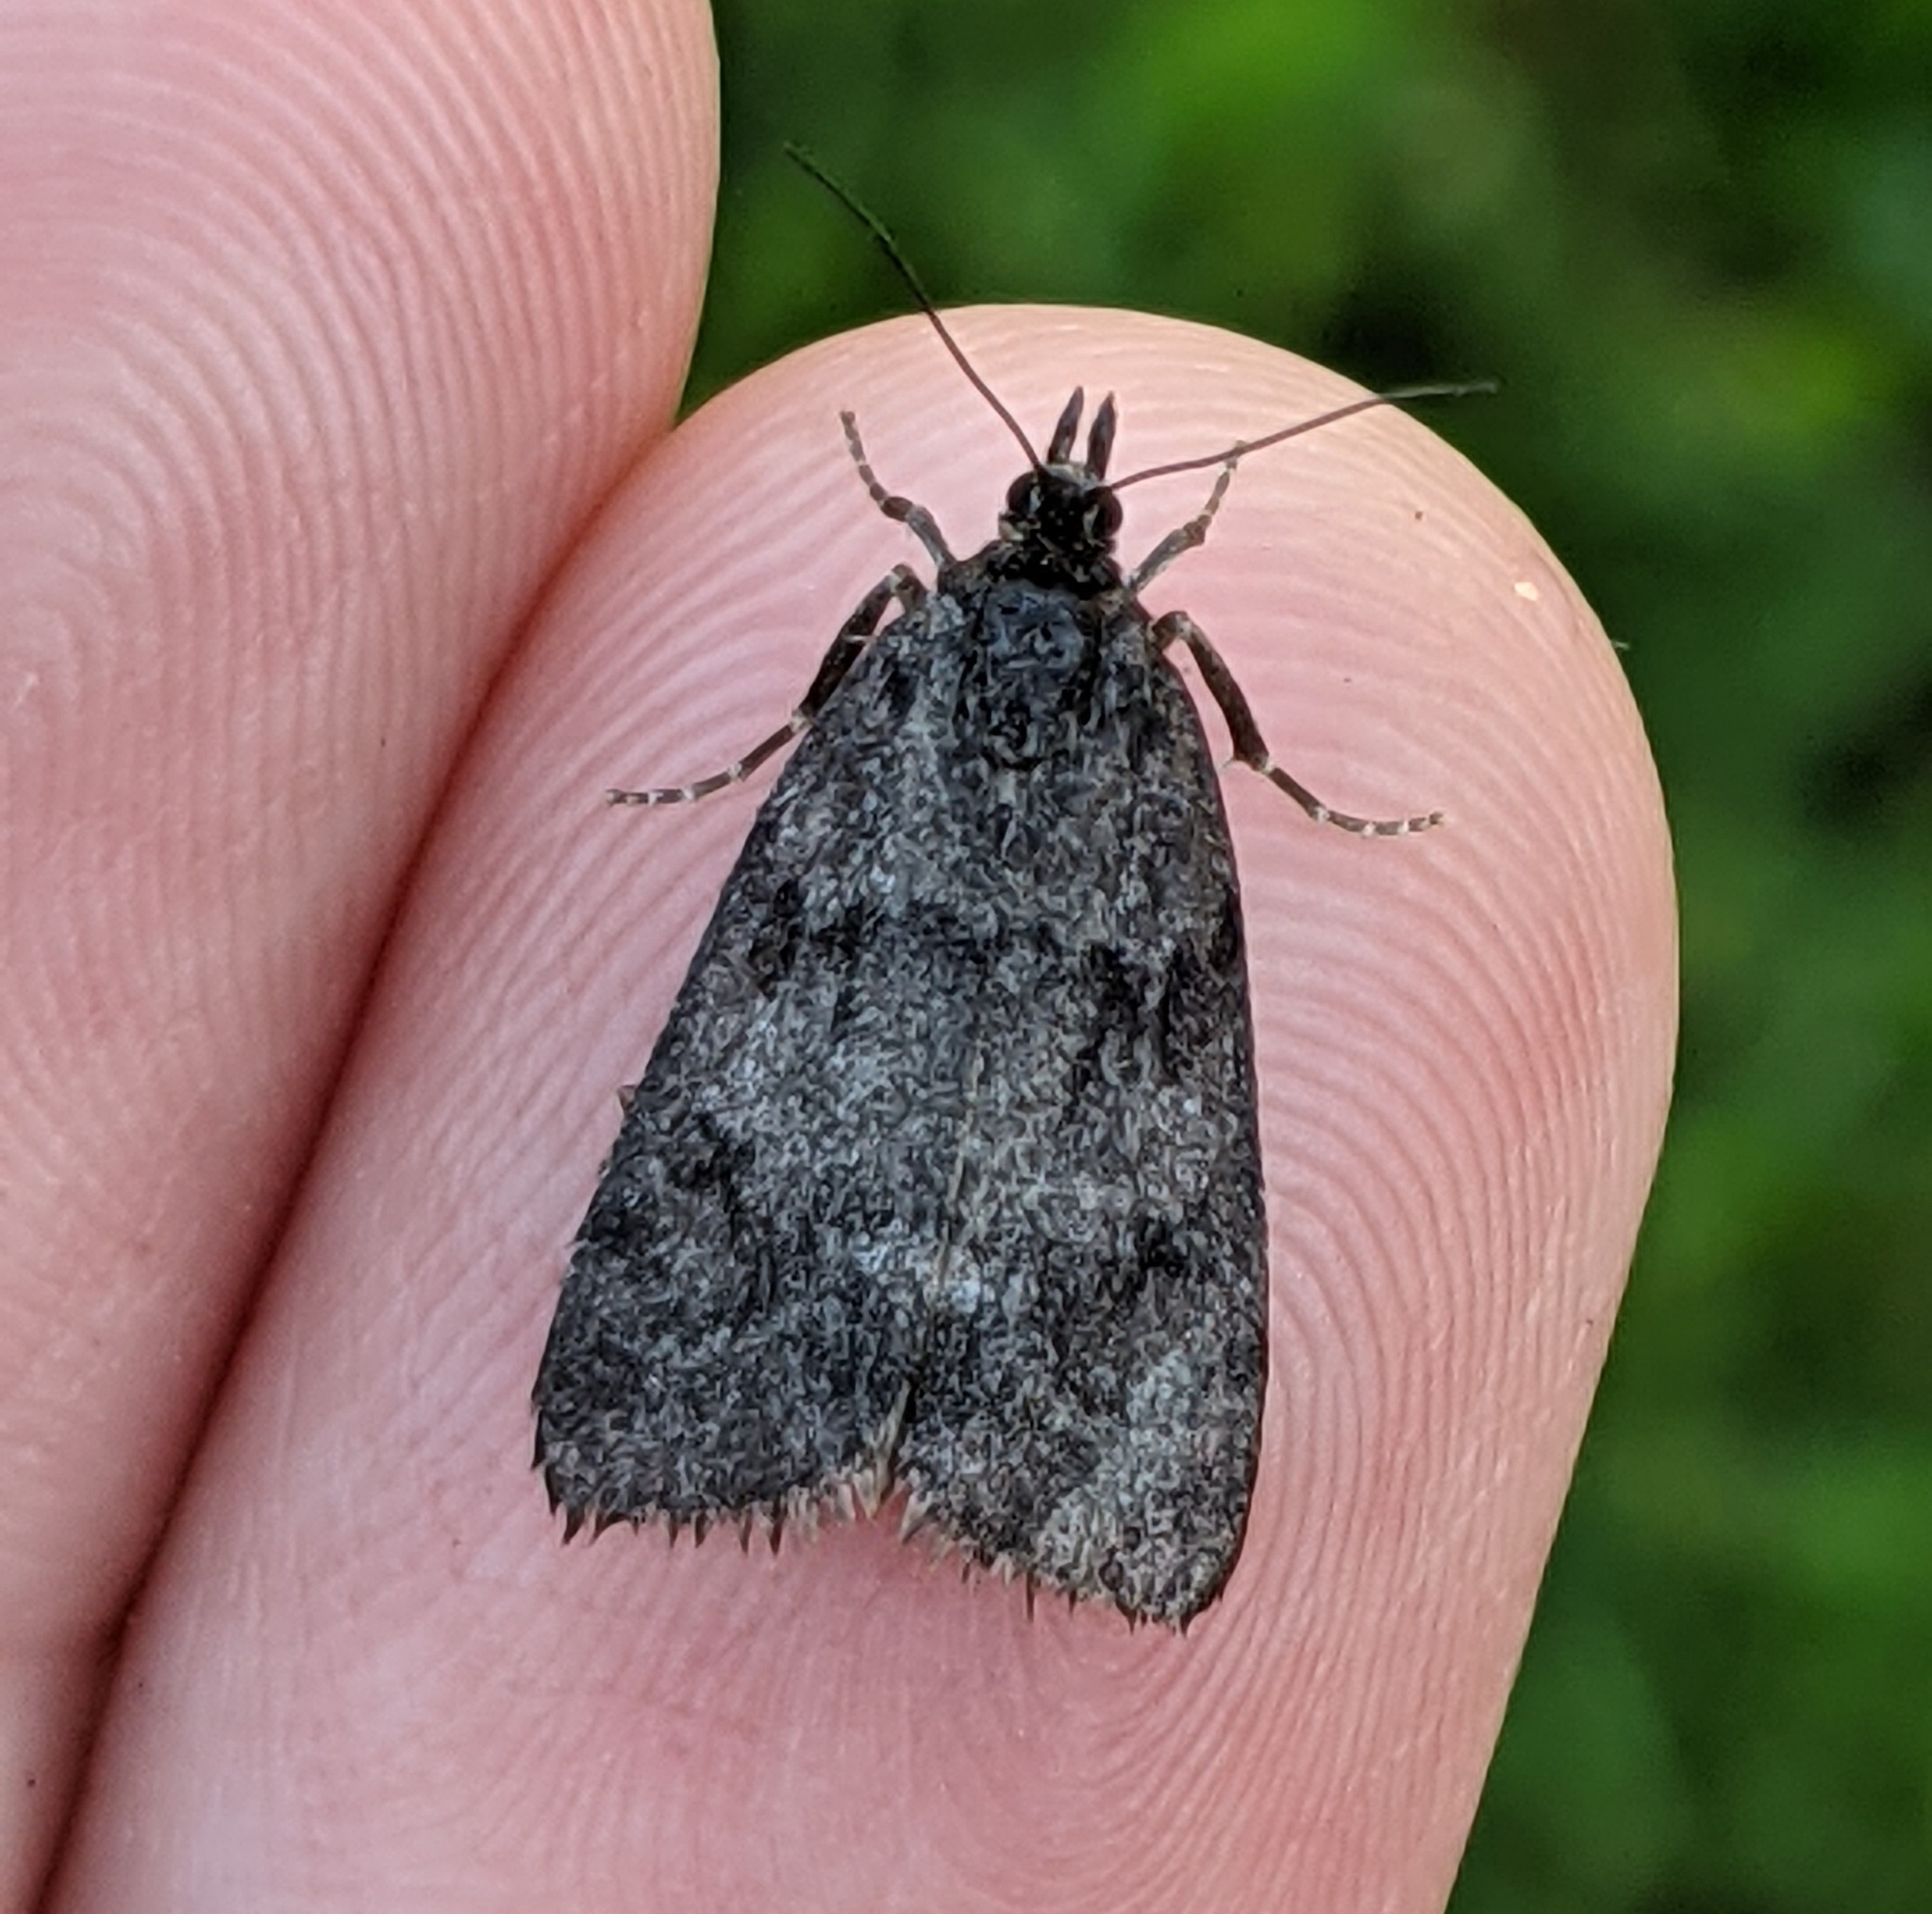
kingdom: Animalia
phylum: Arthropoda
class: Insecta
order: Lepidoptera
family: Crambidae
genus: Gesneria
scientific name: Gesneria centuriella
